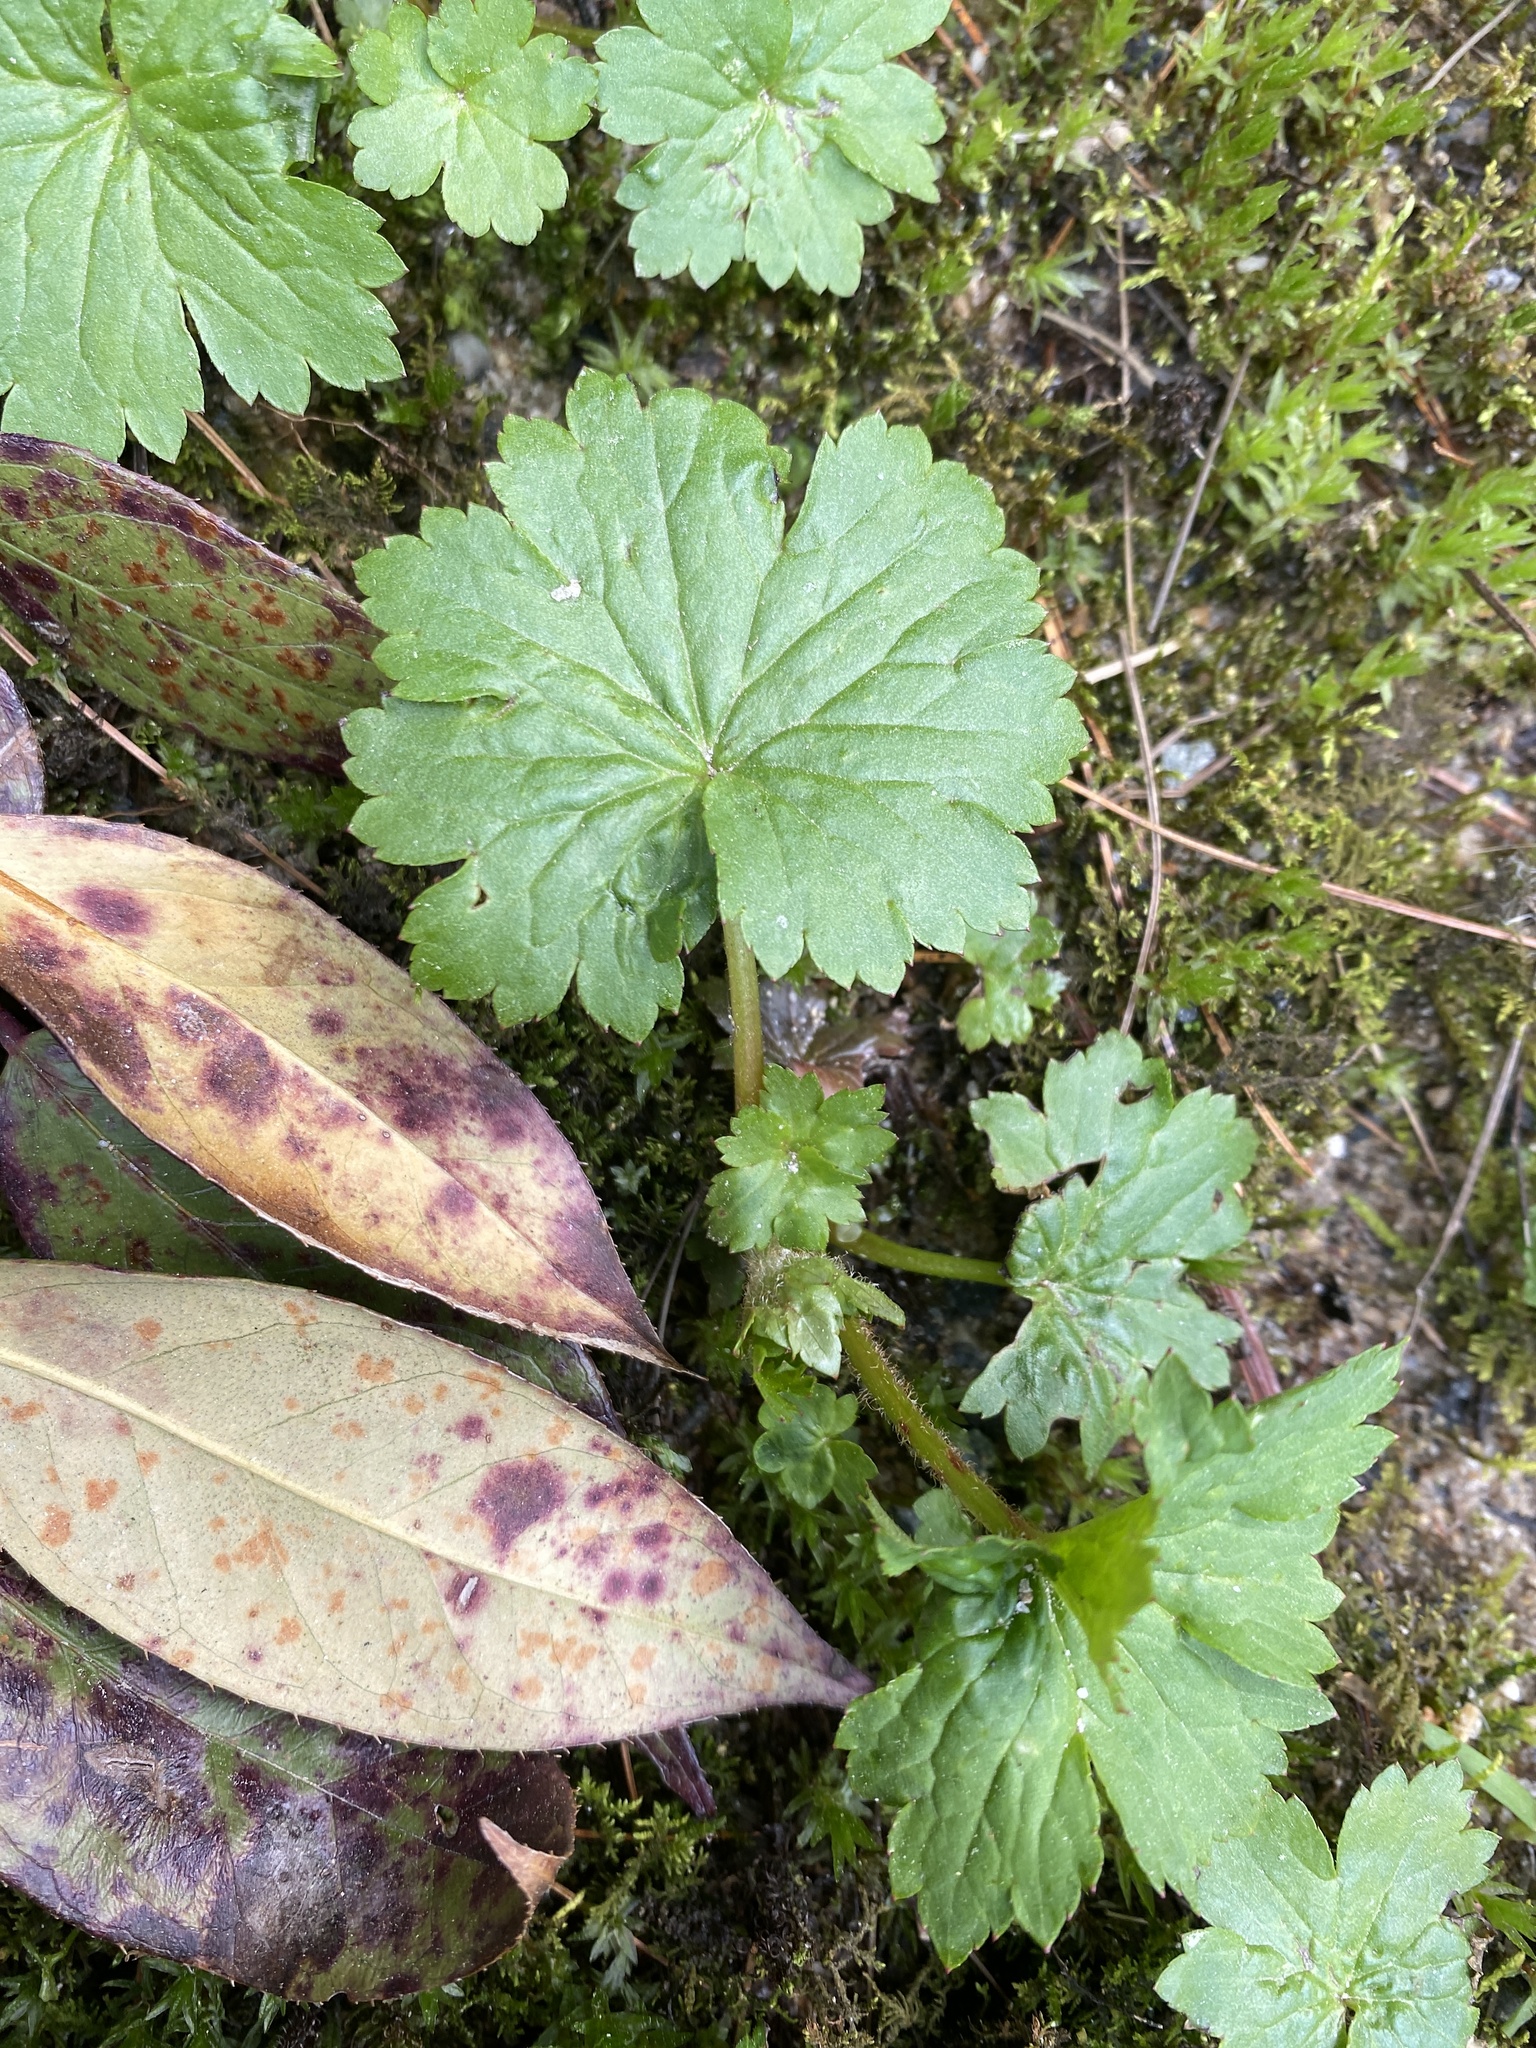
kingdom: Plantae
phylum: Tracheophyta
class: Magnoliopsida
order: Saxifragales
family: Saxifragaceae
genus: Boykinia
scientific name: Boykinia aconitifolia
